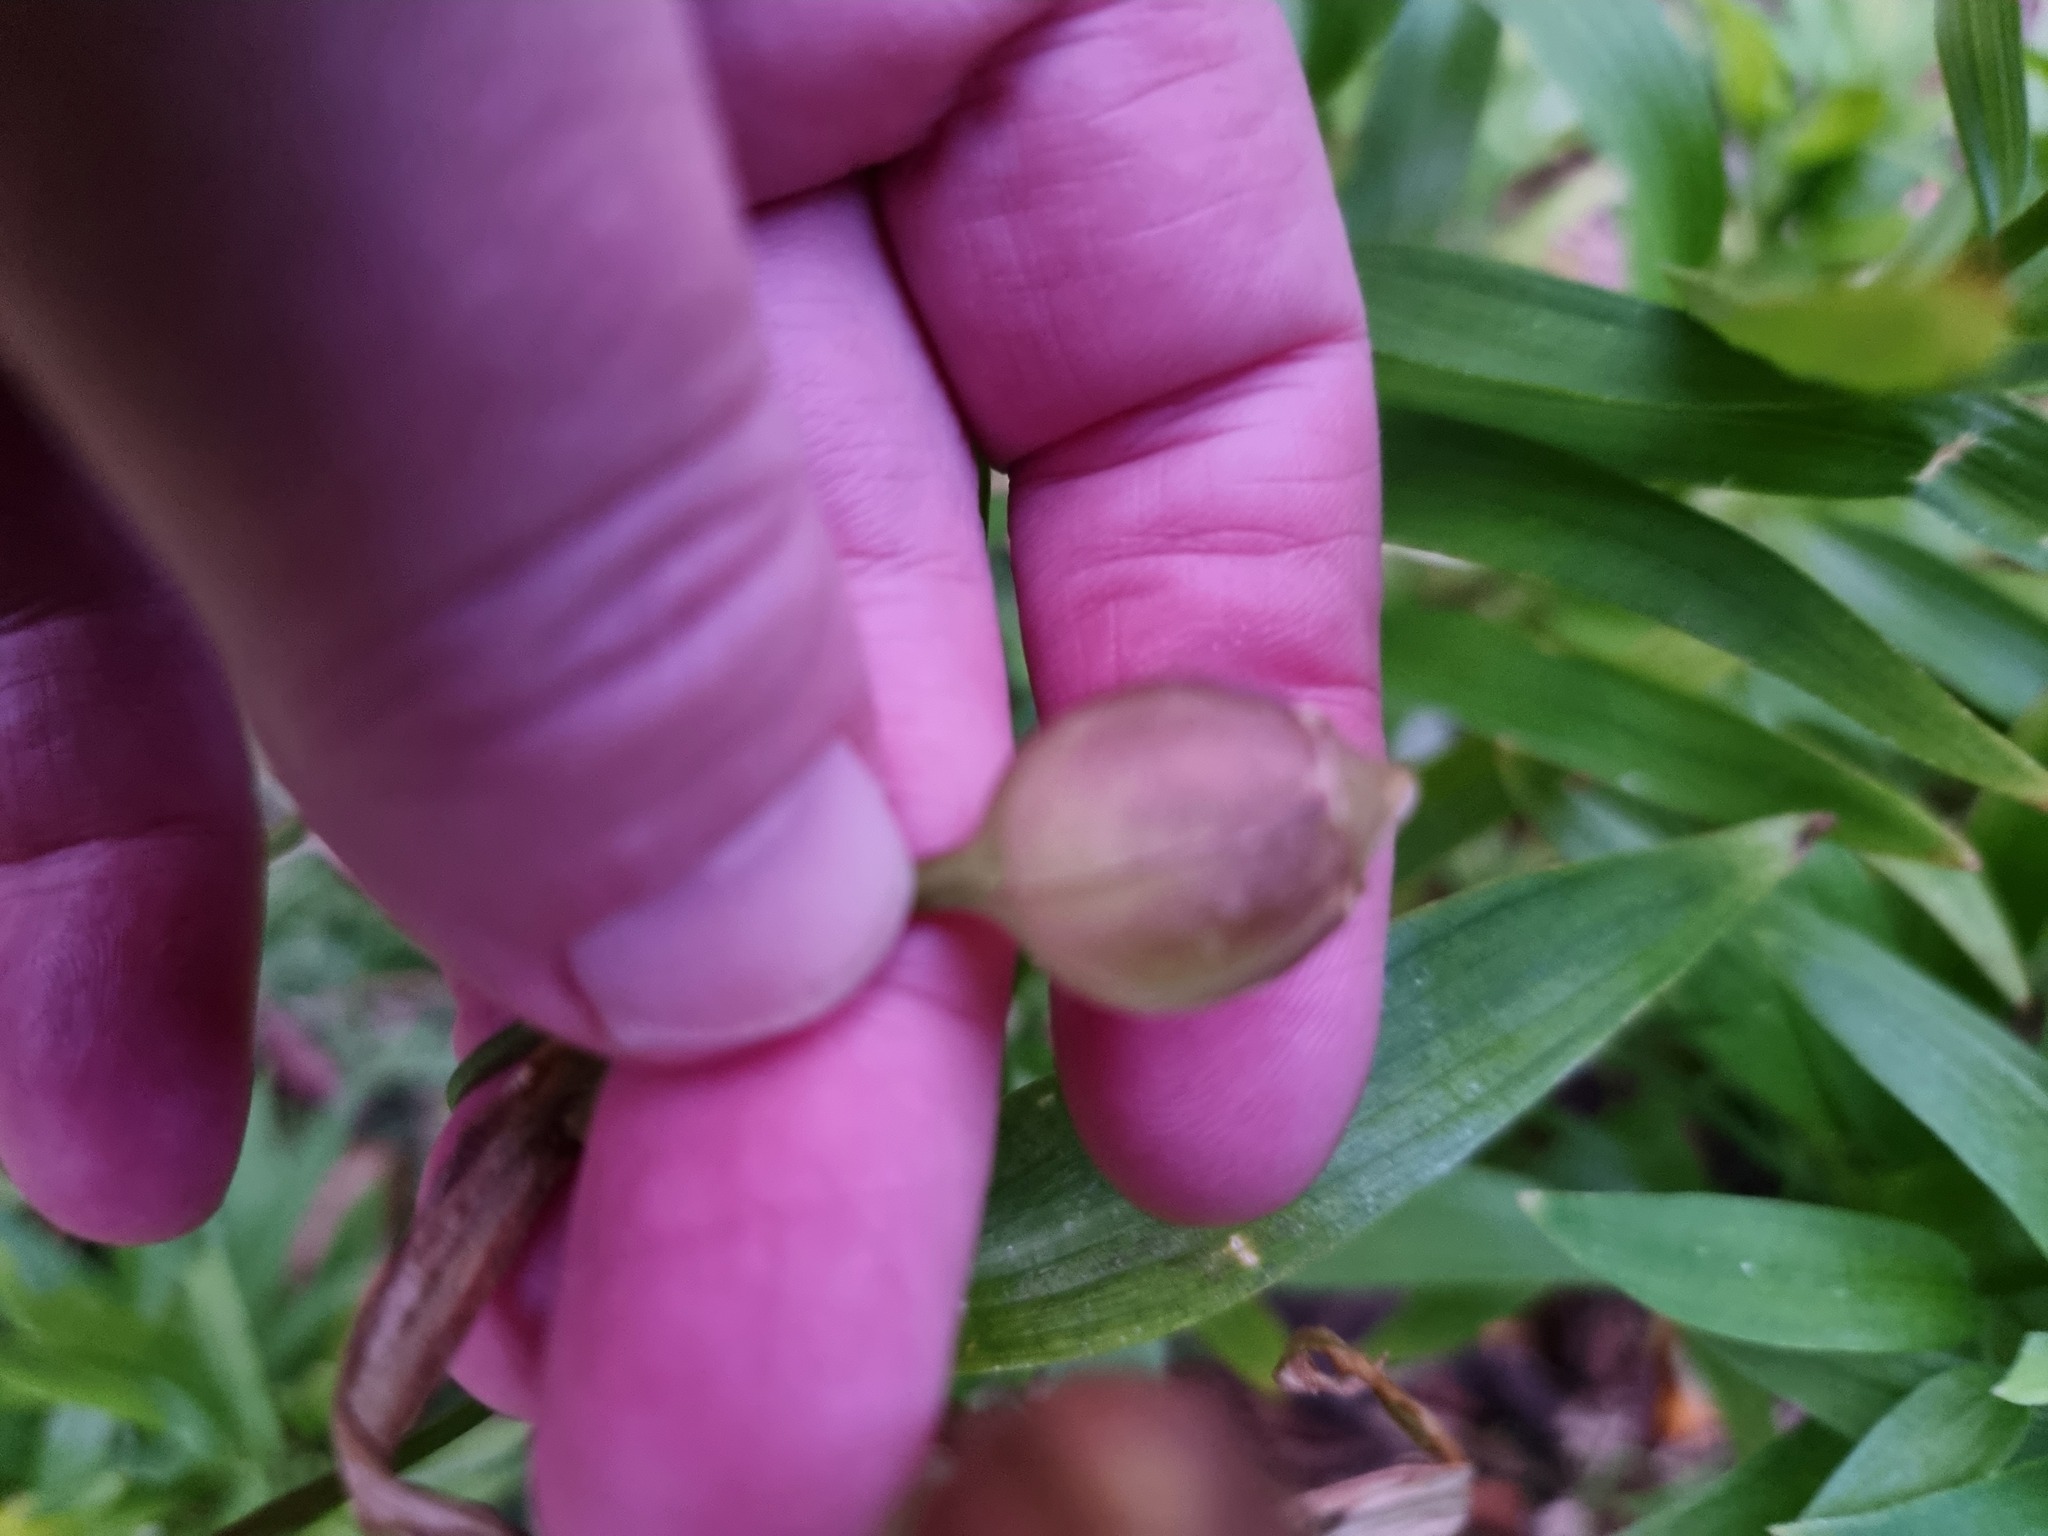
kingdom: Plantae
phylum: Tracheophyta
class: Liliopsida
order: Liliales
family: Alstroemeriaceae
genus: Alstroemeria
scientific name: Alstroemeria aurea
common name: Peruvian lily
